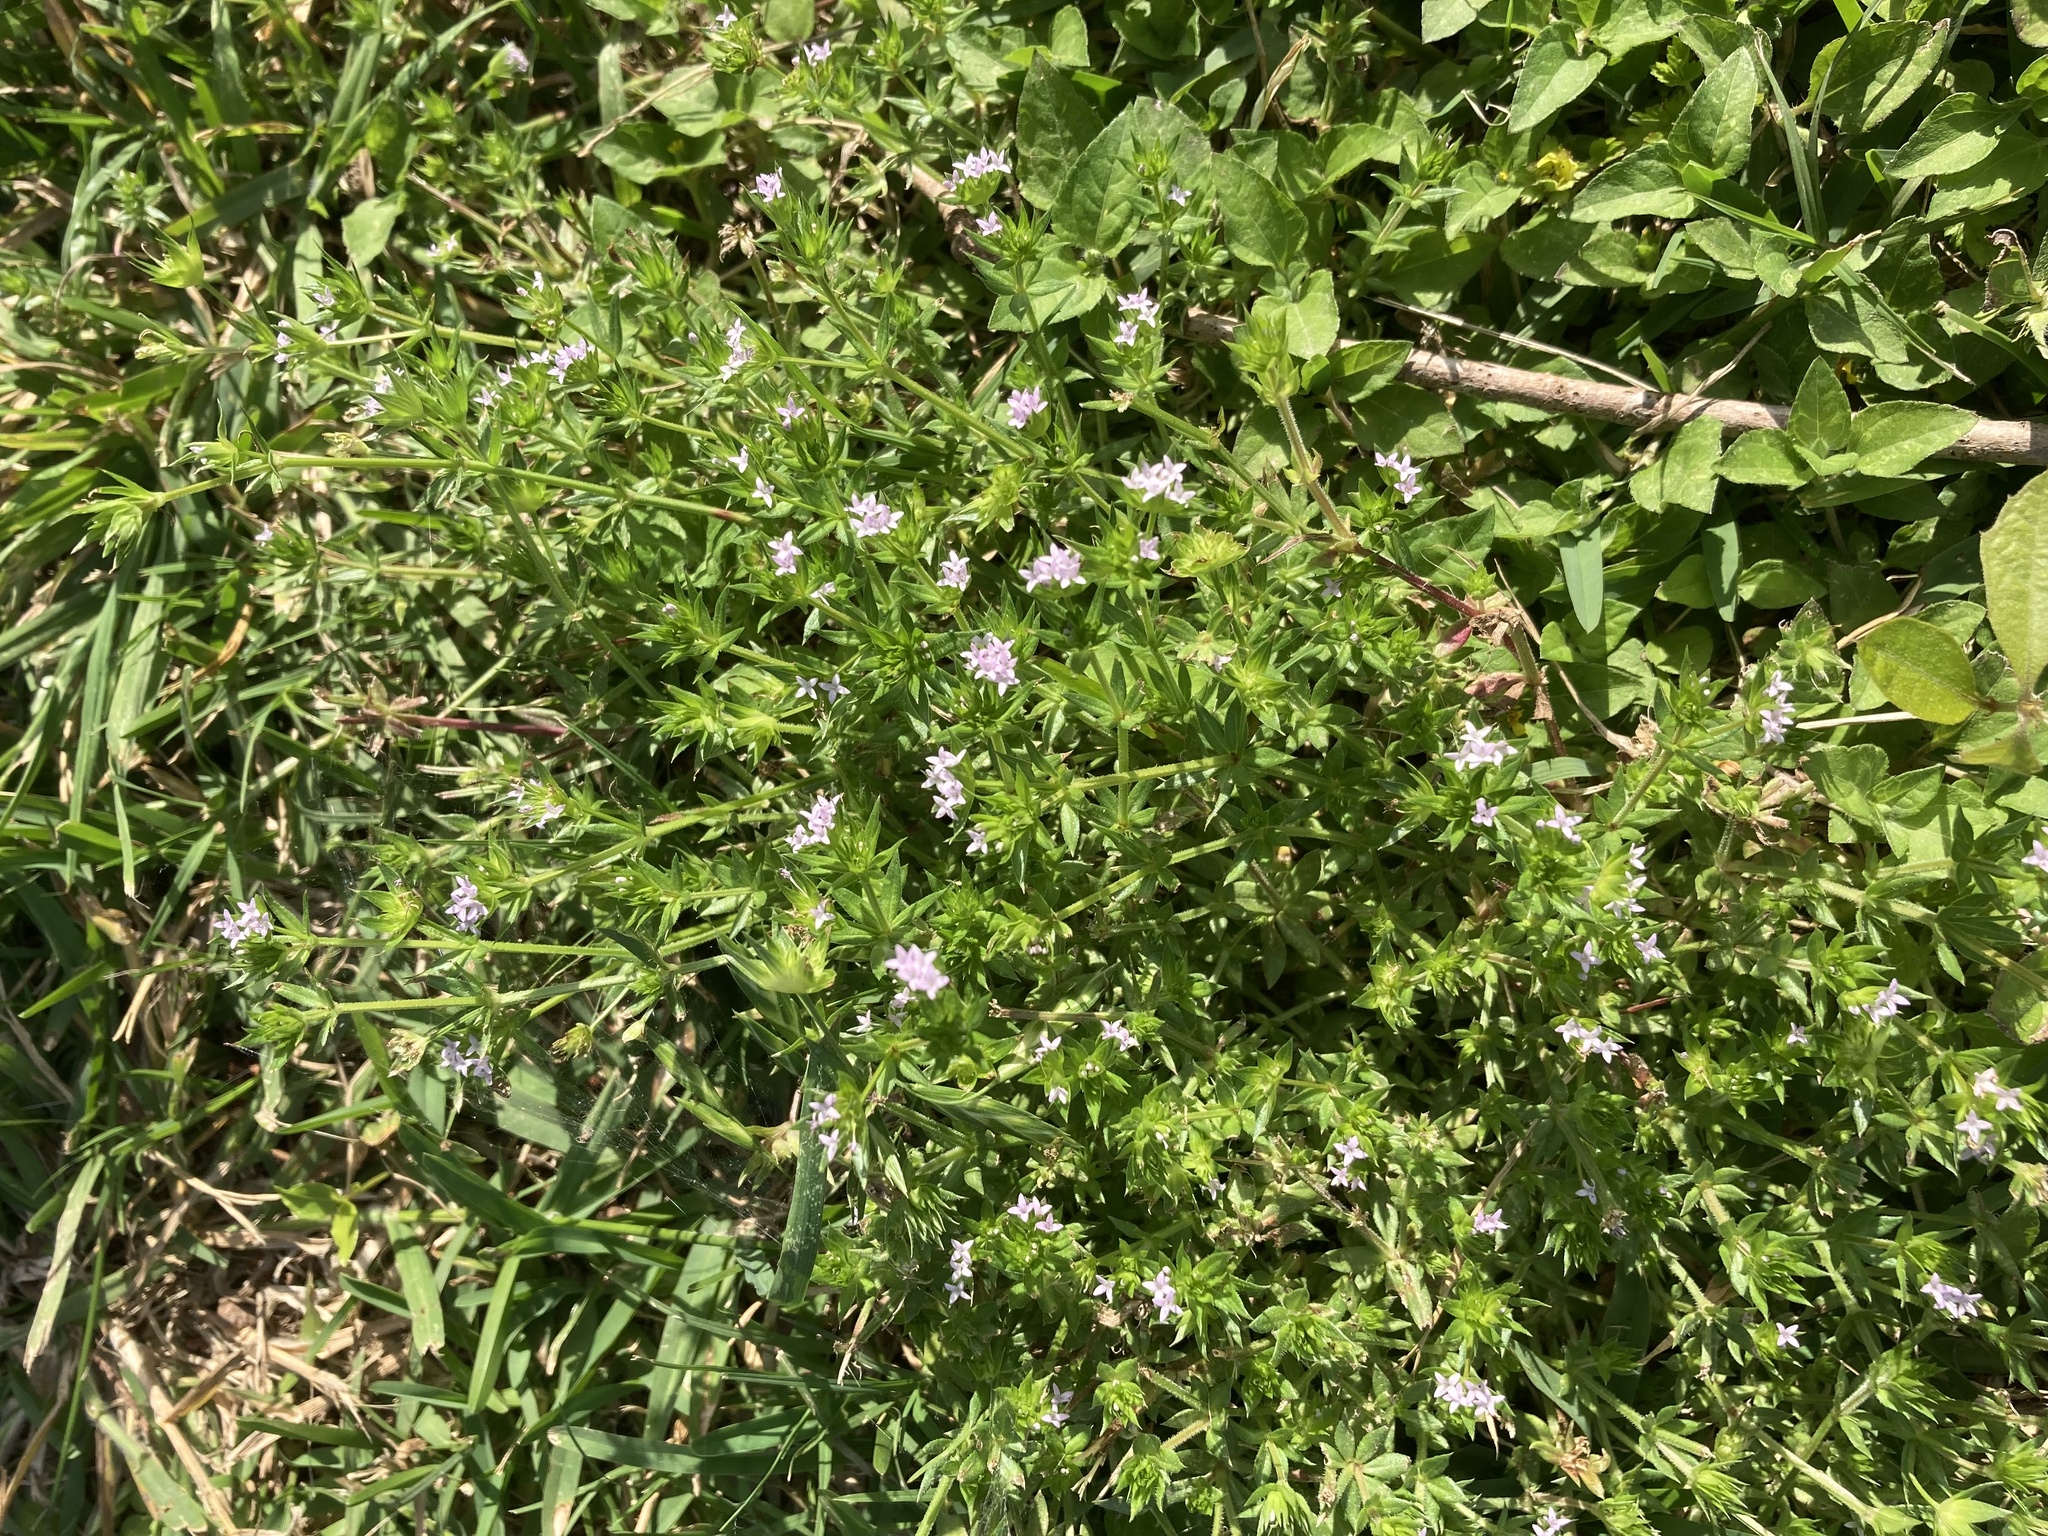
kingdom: Plantae
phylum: Tracheophyta
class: Magnoliopsida
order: Gentianales
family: Rubiaceae
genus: Sherardia
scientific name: Sherardia arvensis
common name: Field madder
